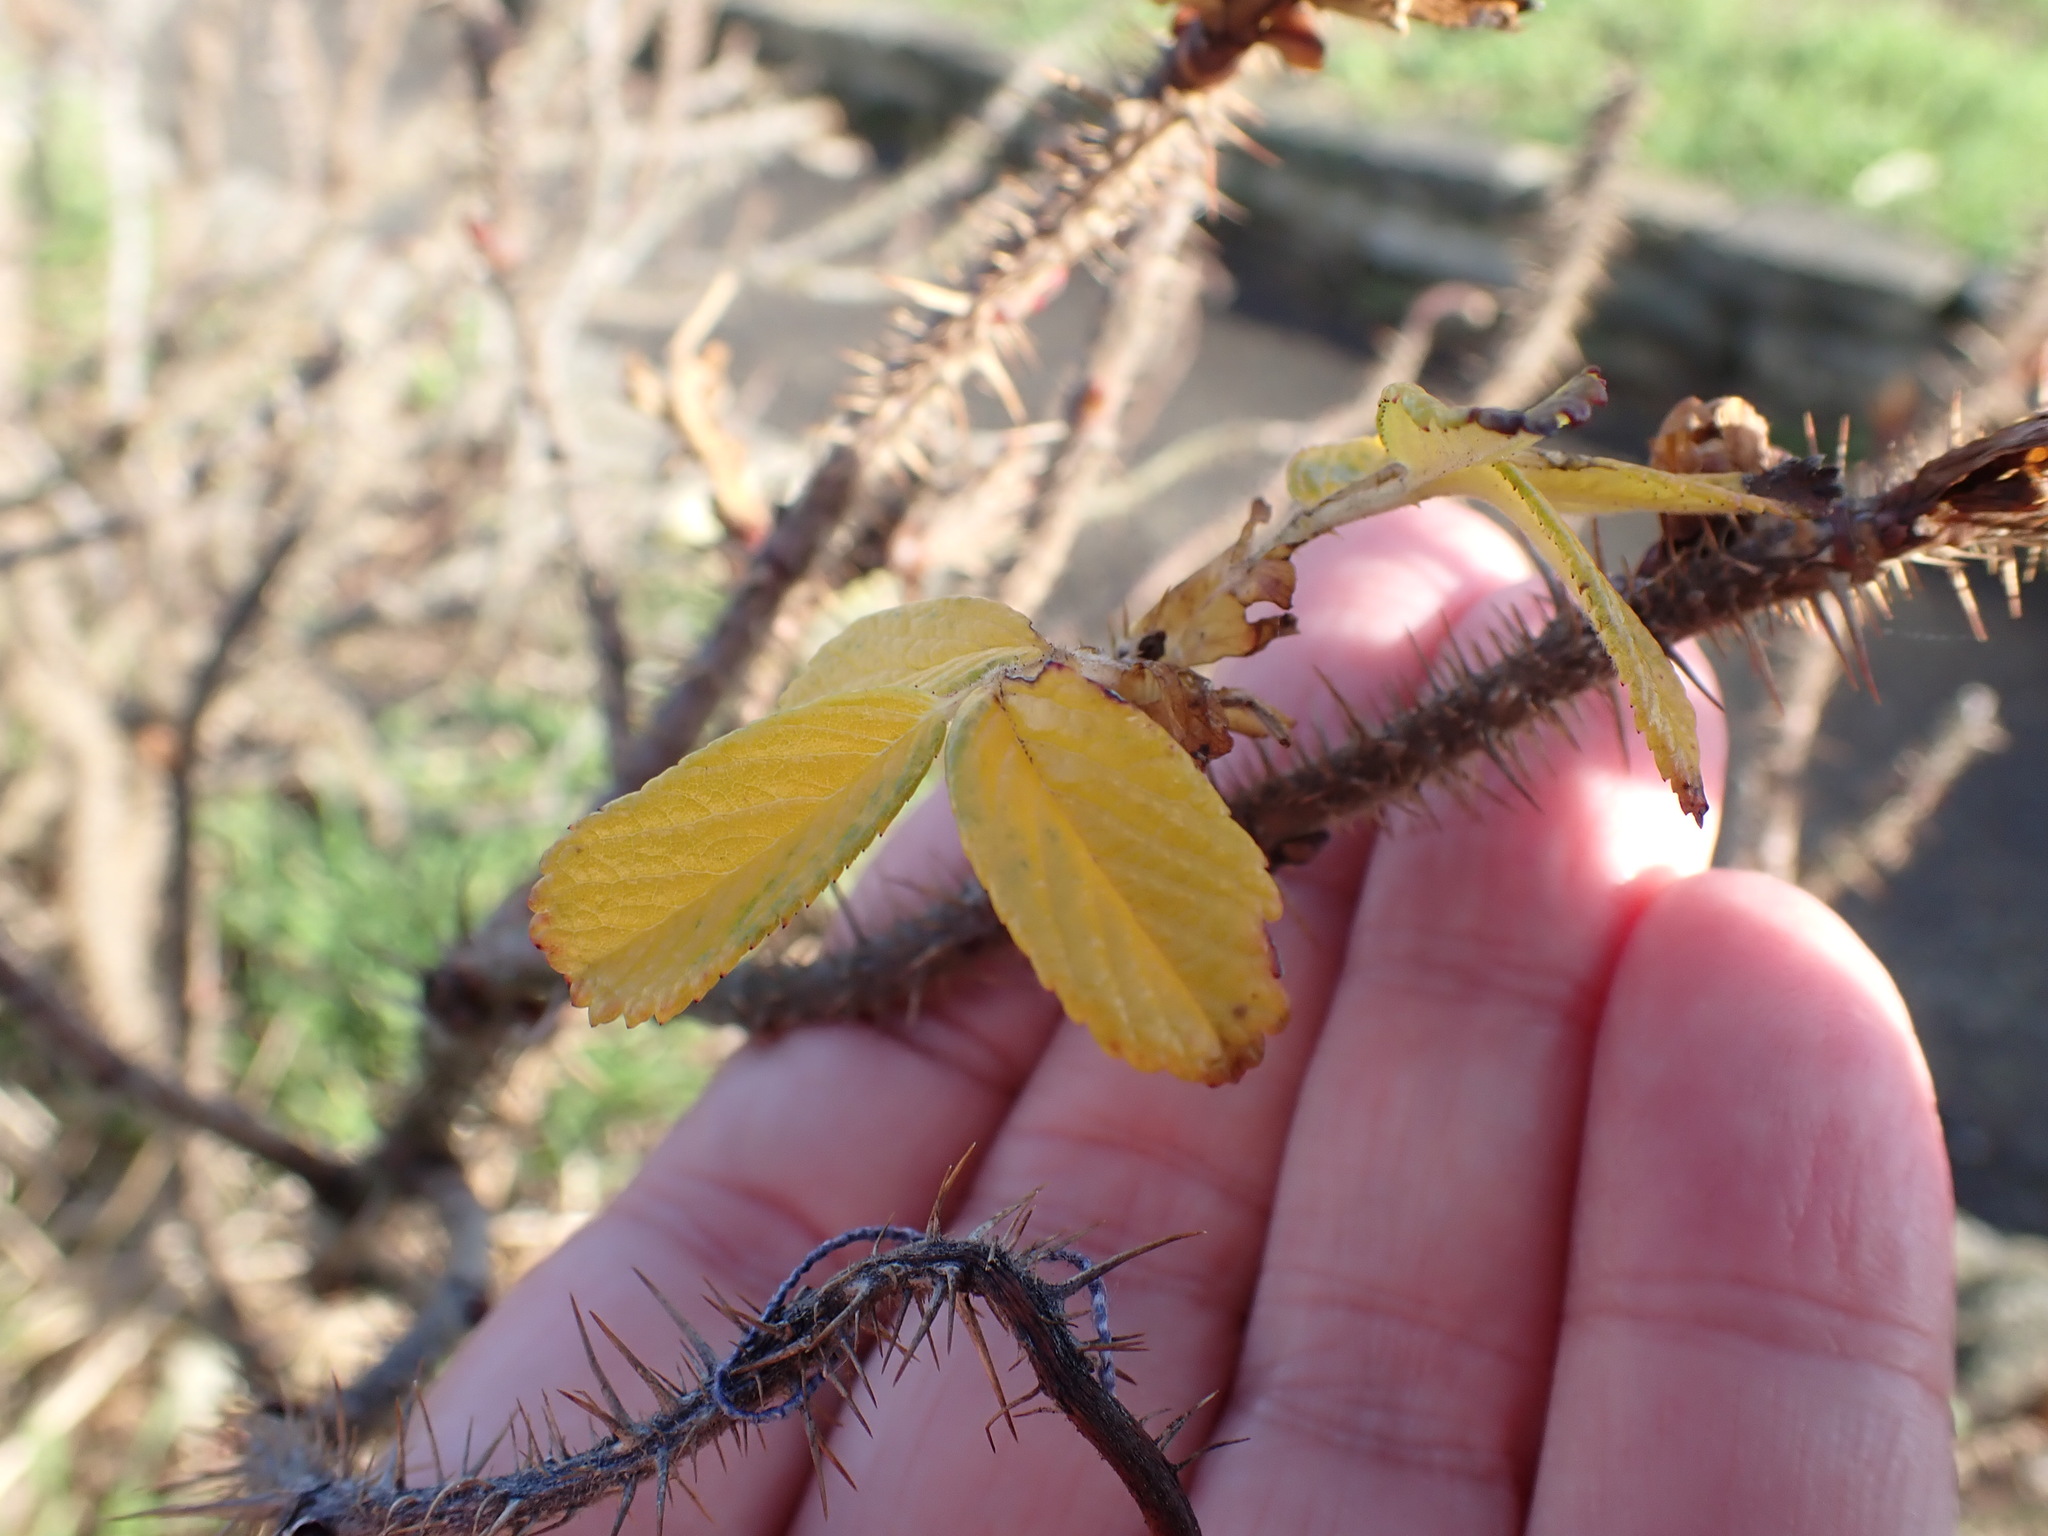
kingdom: Plantae
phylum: Tracheophyta
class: Magnoliopsida
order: Rosales
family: Rosaceae
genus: Rosa
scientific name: Rosa rugosa
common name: Japanese rose
